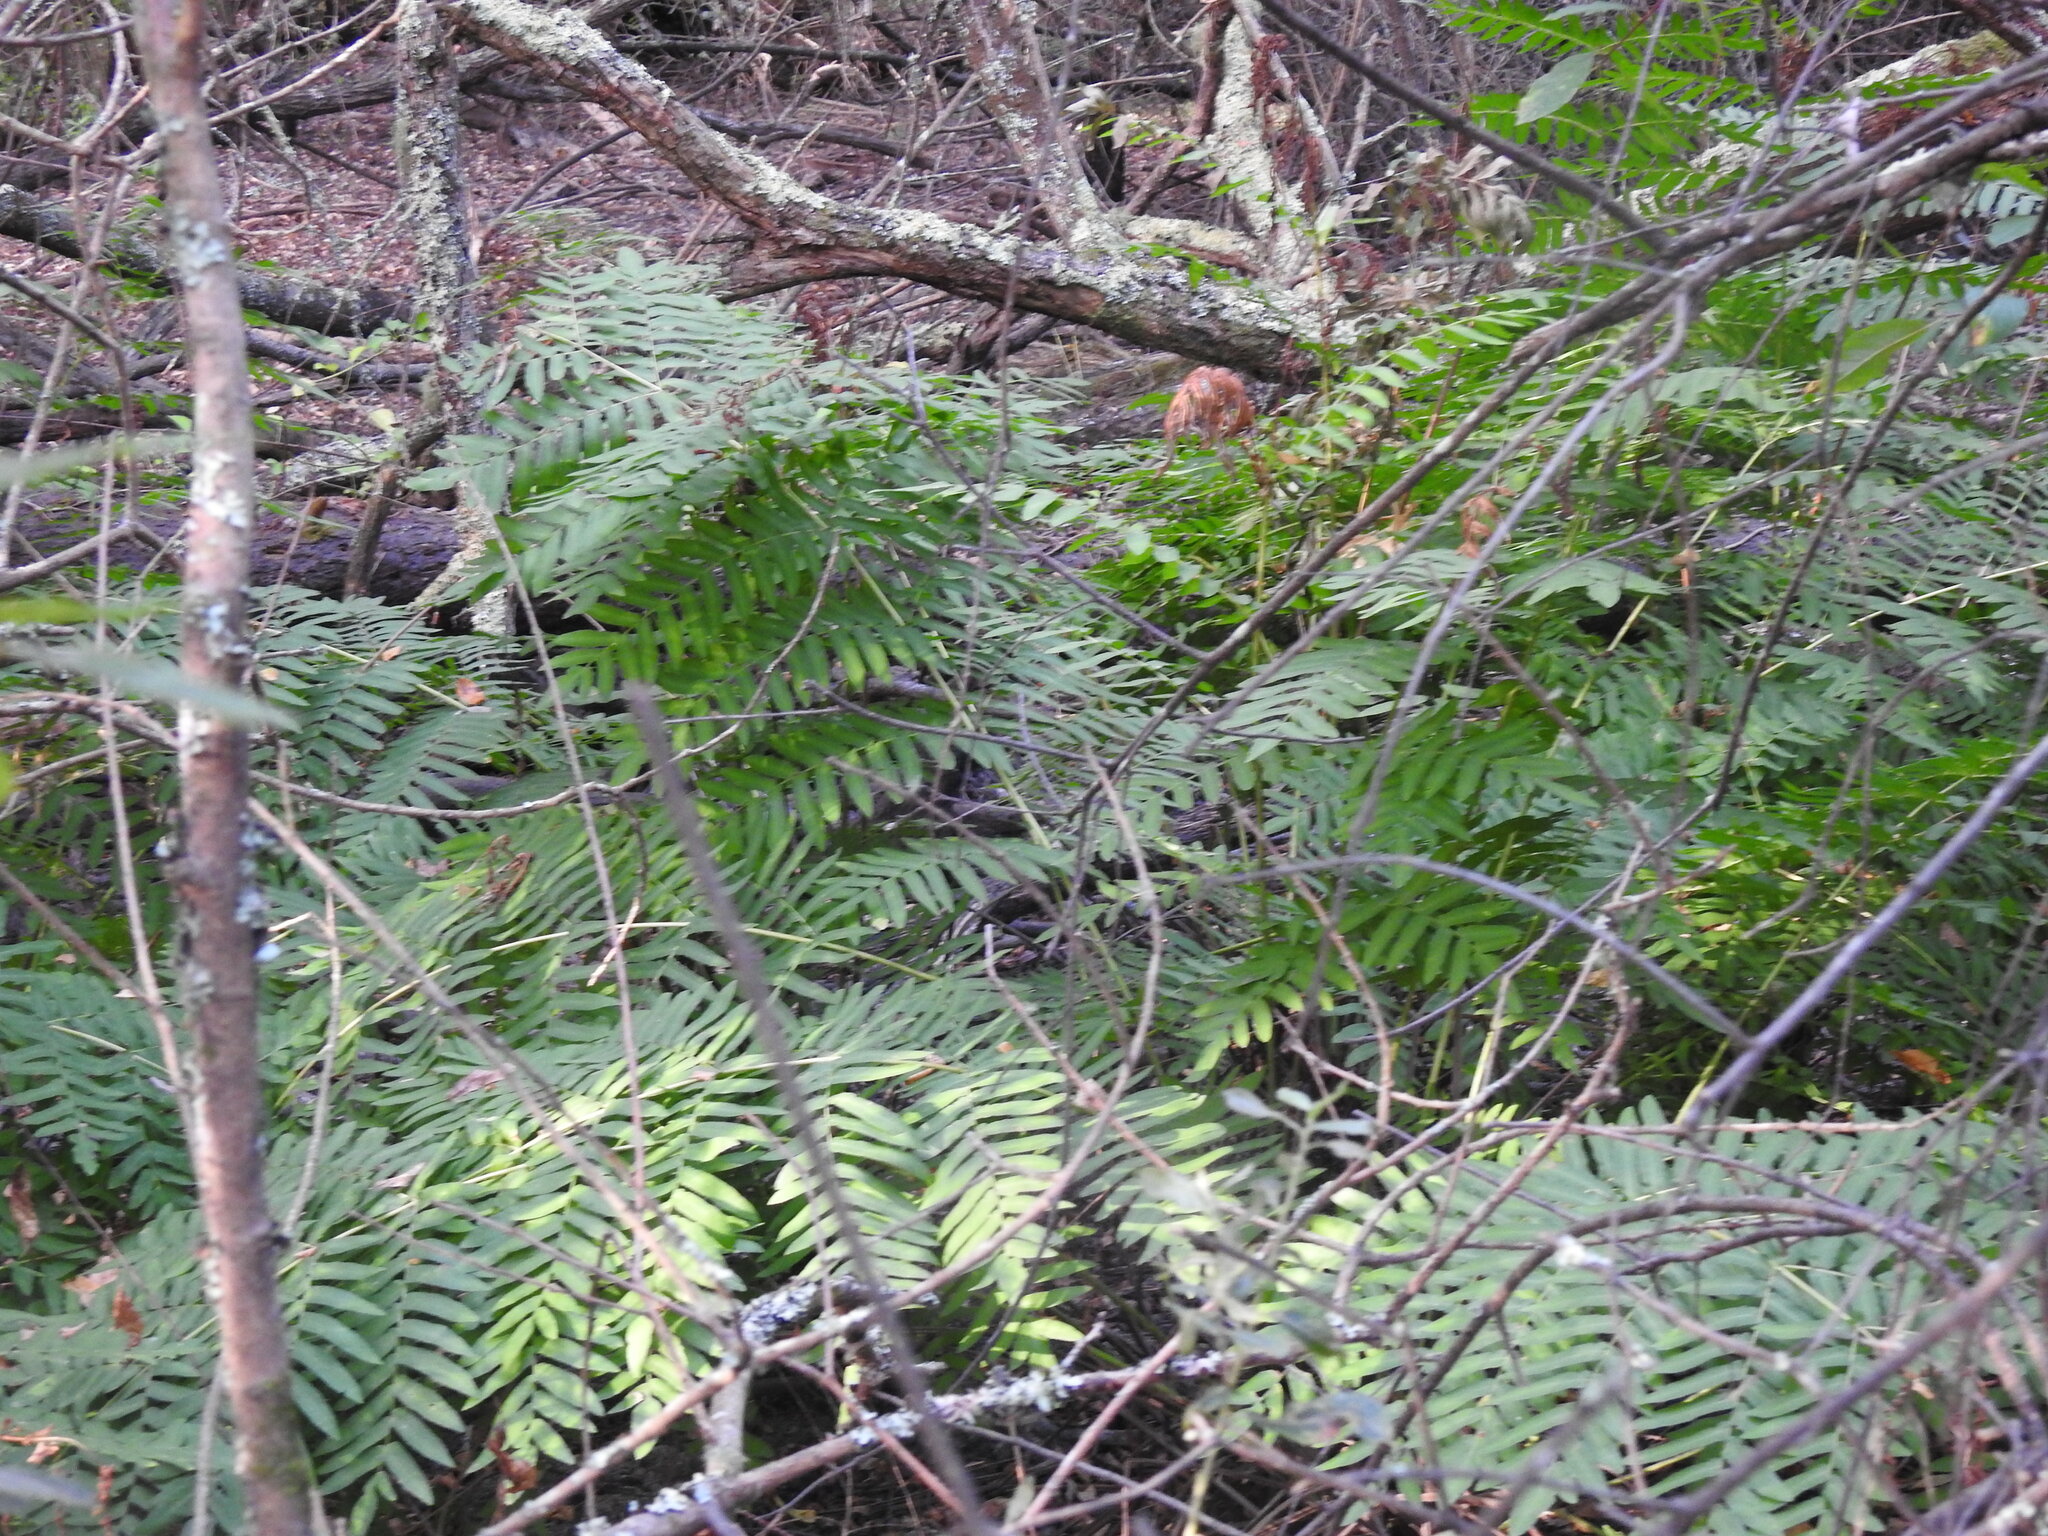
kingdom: Plantae
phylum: Tracheophyta
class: Polypodiopsida
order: Osmundales
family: Osmundaceae
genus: Osmunda
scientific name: Osmunda regalis
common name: Royal fern
